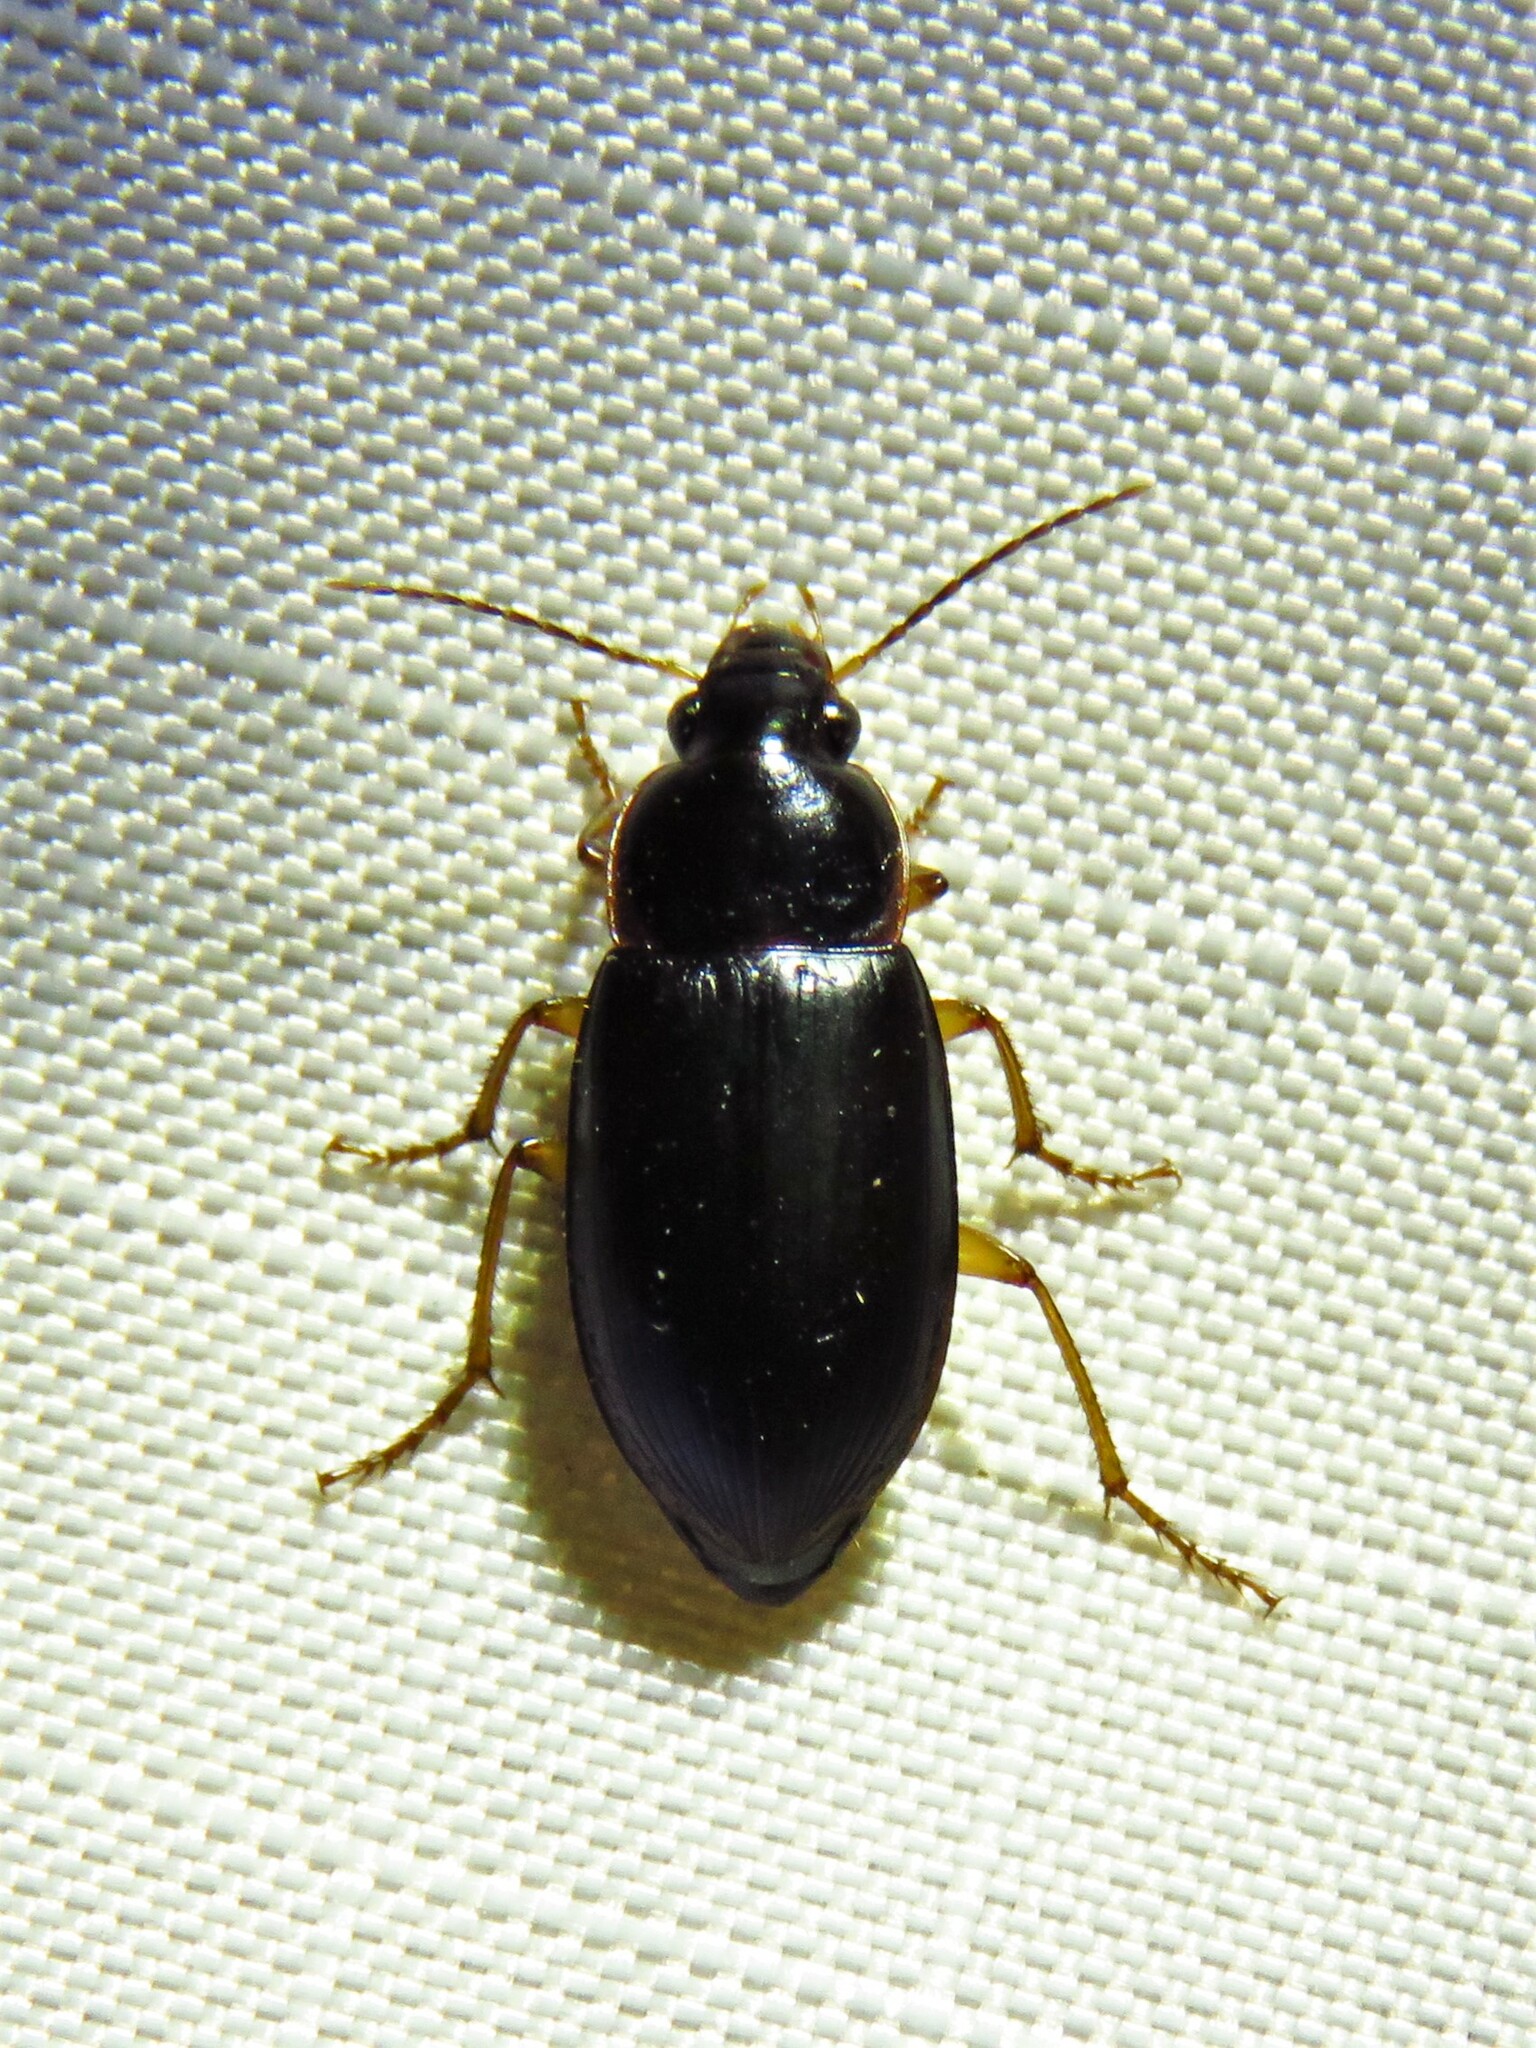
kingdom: Animalia
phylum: Arthropoda
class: Insecta
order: Coleoptera
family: Carabidae
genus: Notiobia
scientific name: Notiobia terminata
